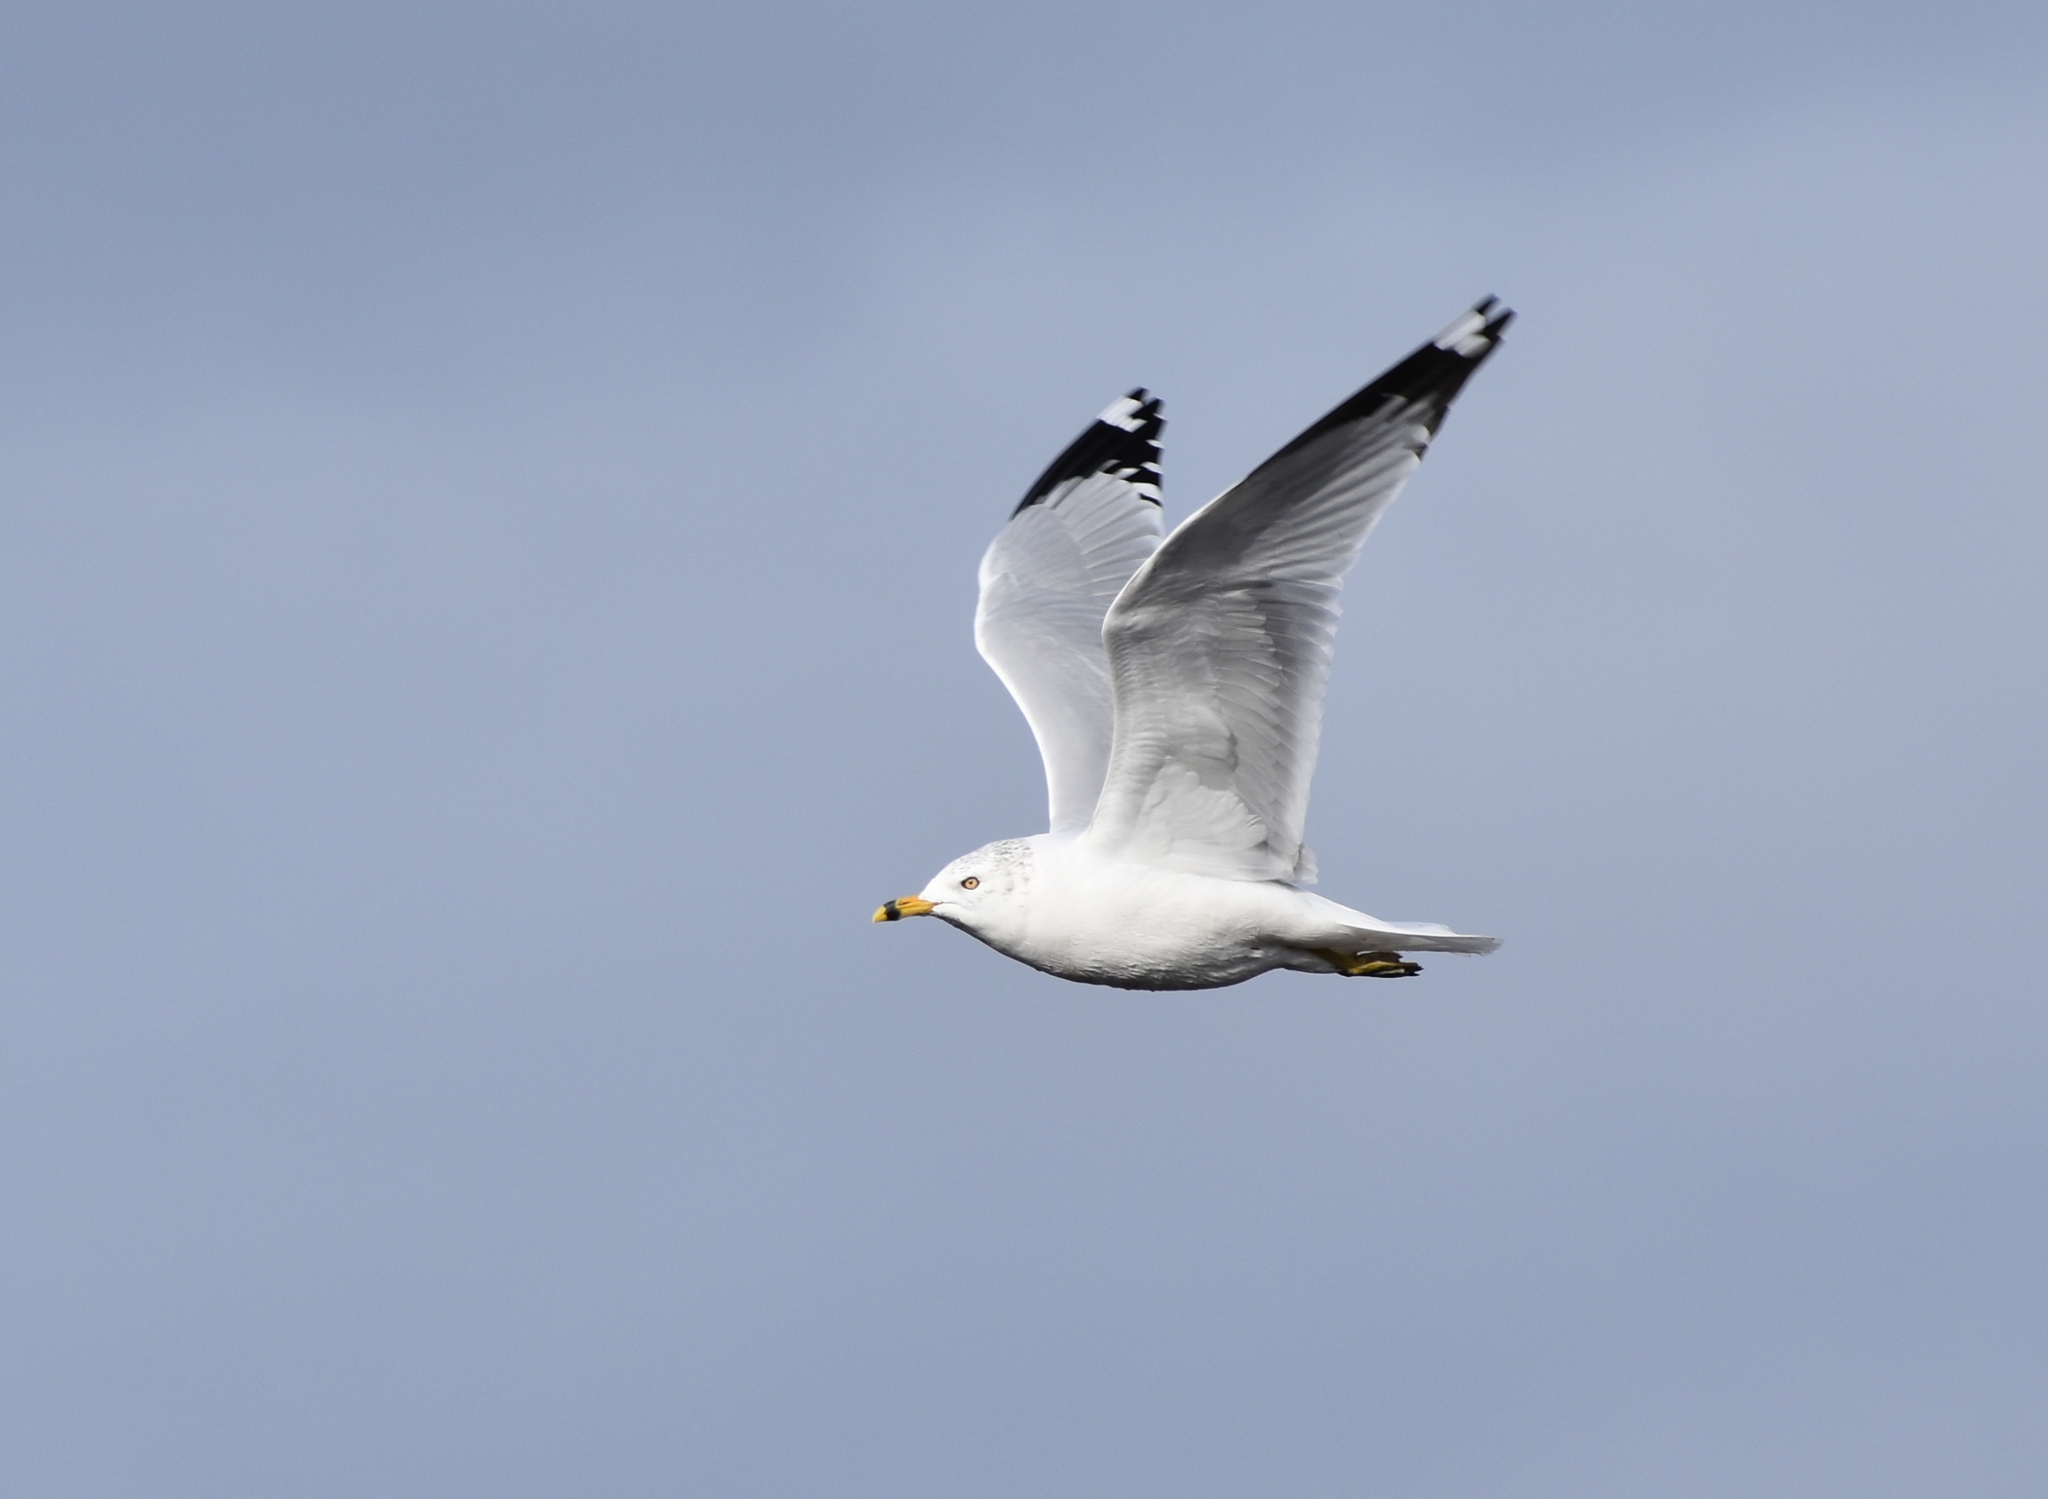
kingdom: Animalia
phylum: Chordata
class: Aves
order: Charadriiformes
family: Laridae
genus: Larus
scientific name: Larus delawarensis
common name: Ring-billed gull
